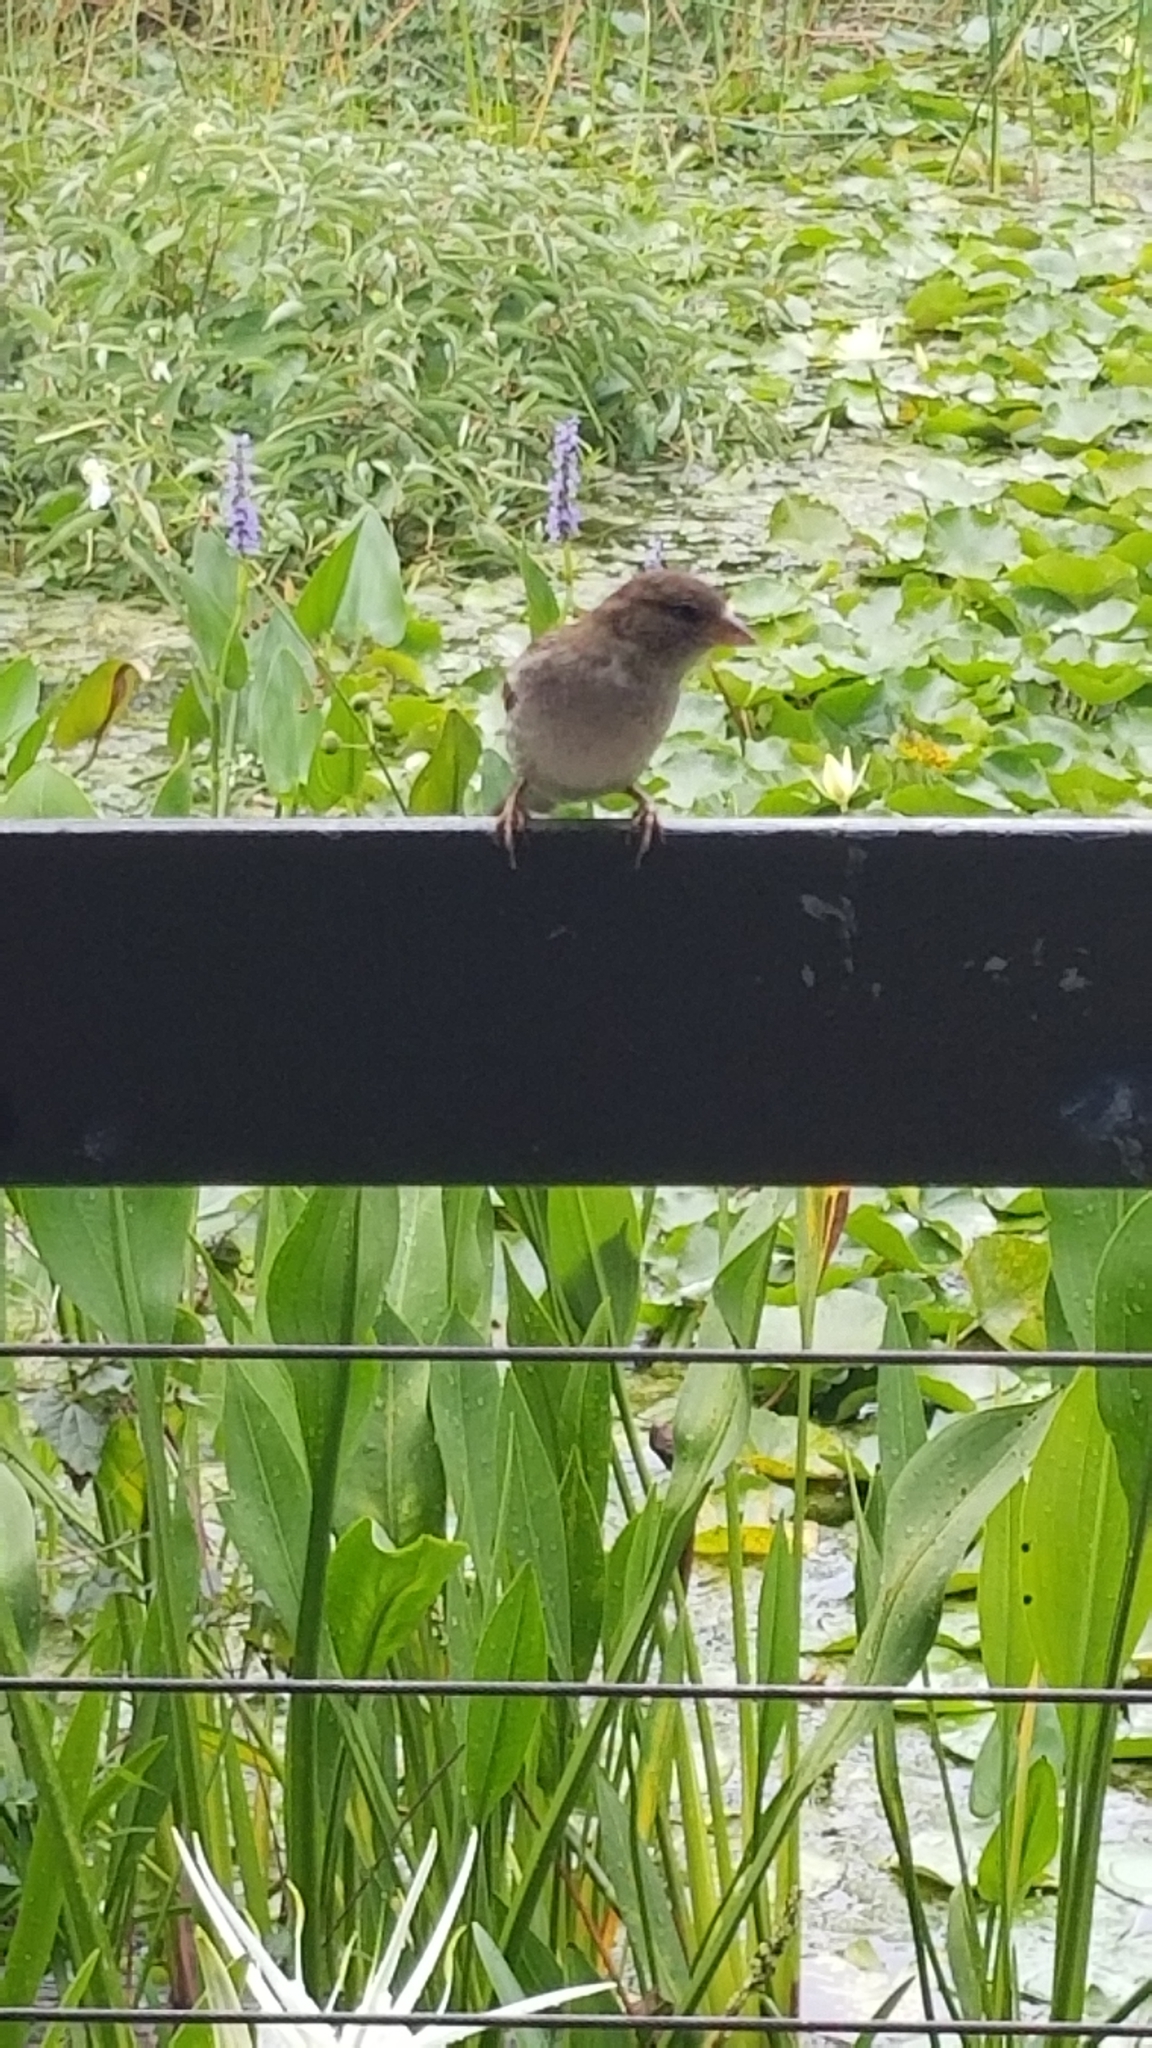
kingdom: Animalia
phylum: Chordata
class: Aves
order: Passeriformes
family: Passeridae
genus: Passer
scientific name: Passer domesticus
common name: House sparrow
